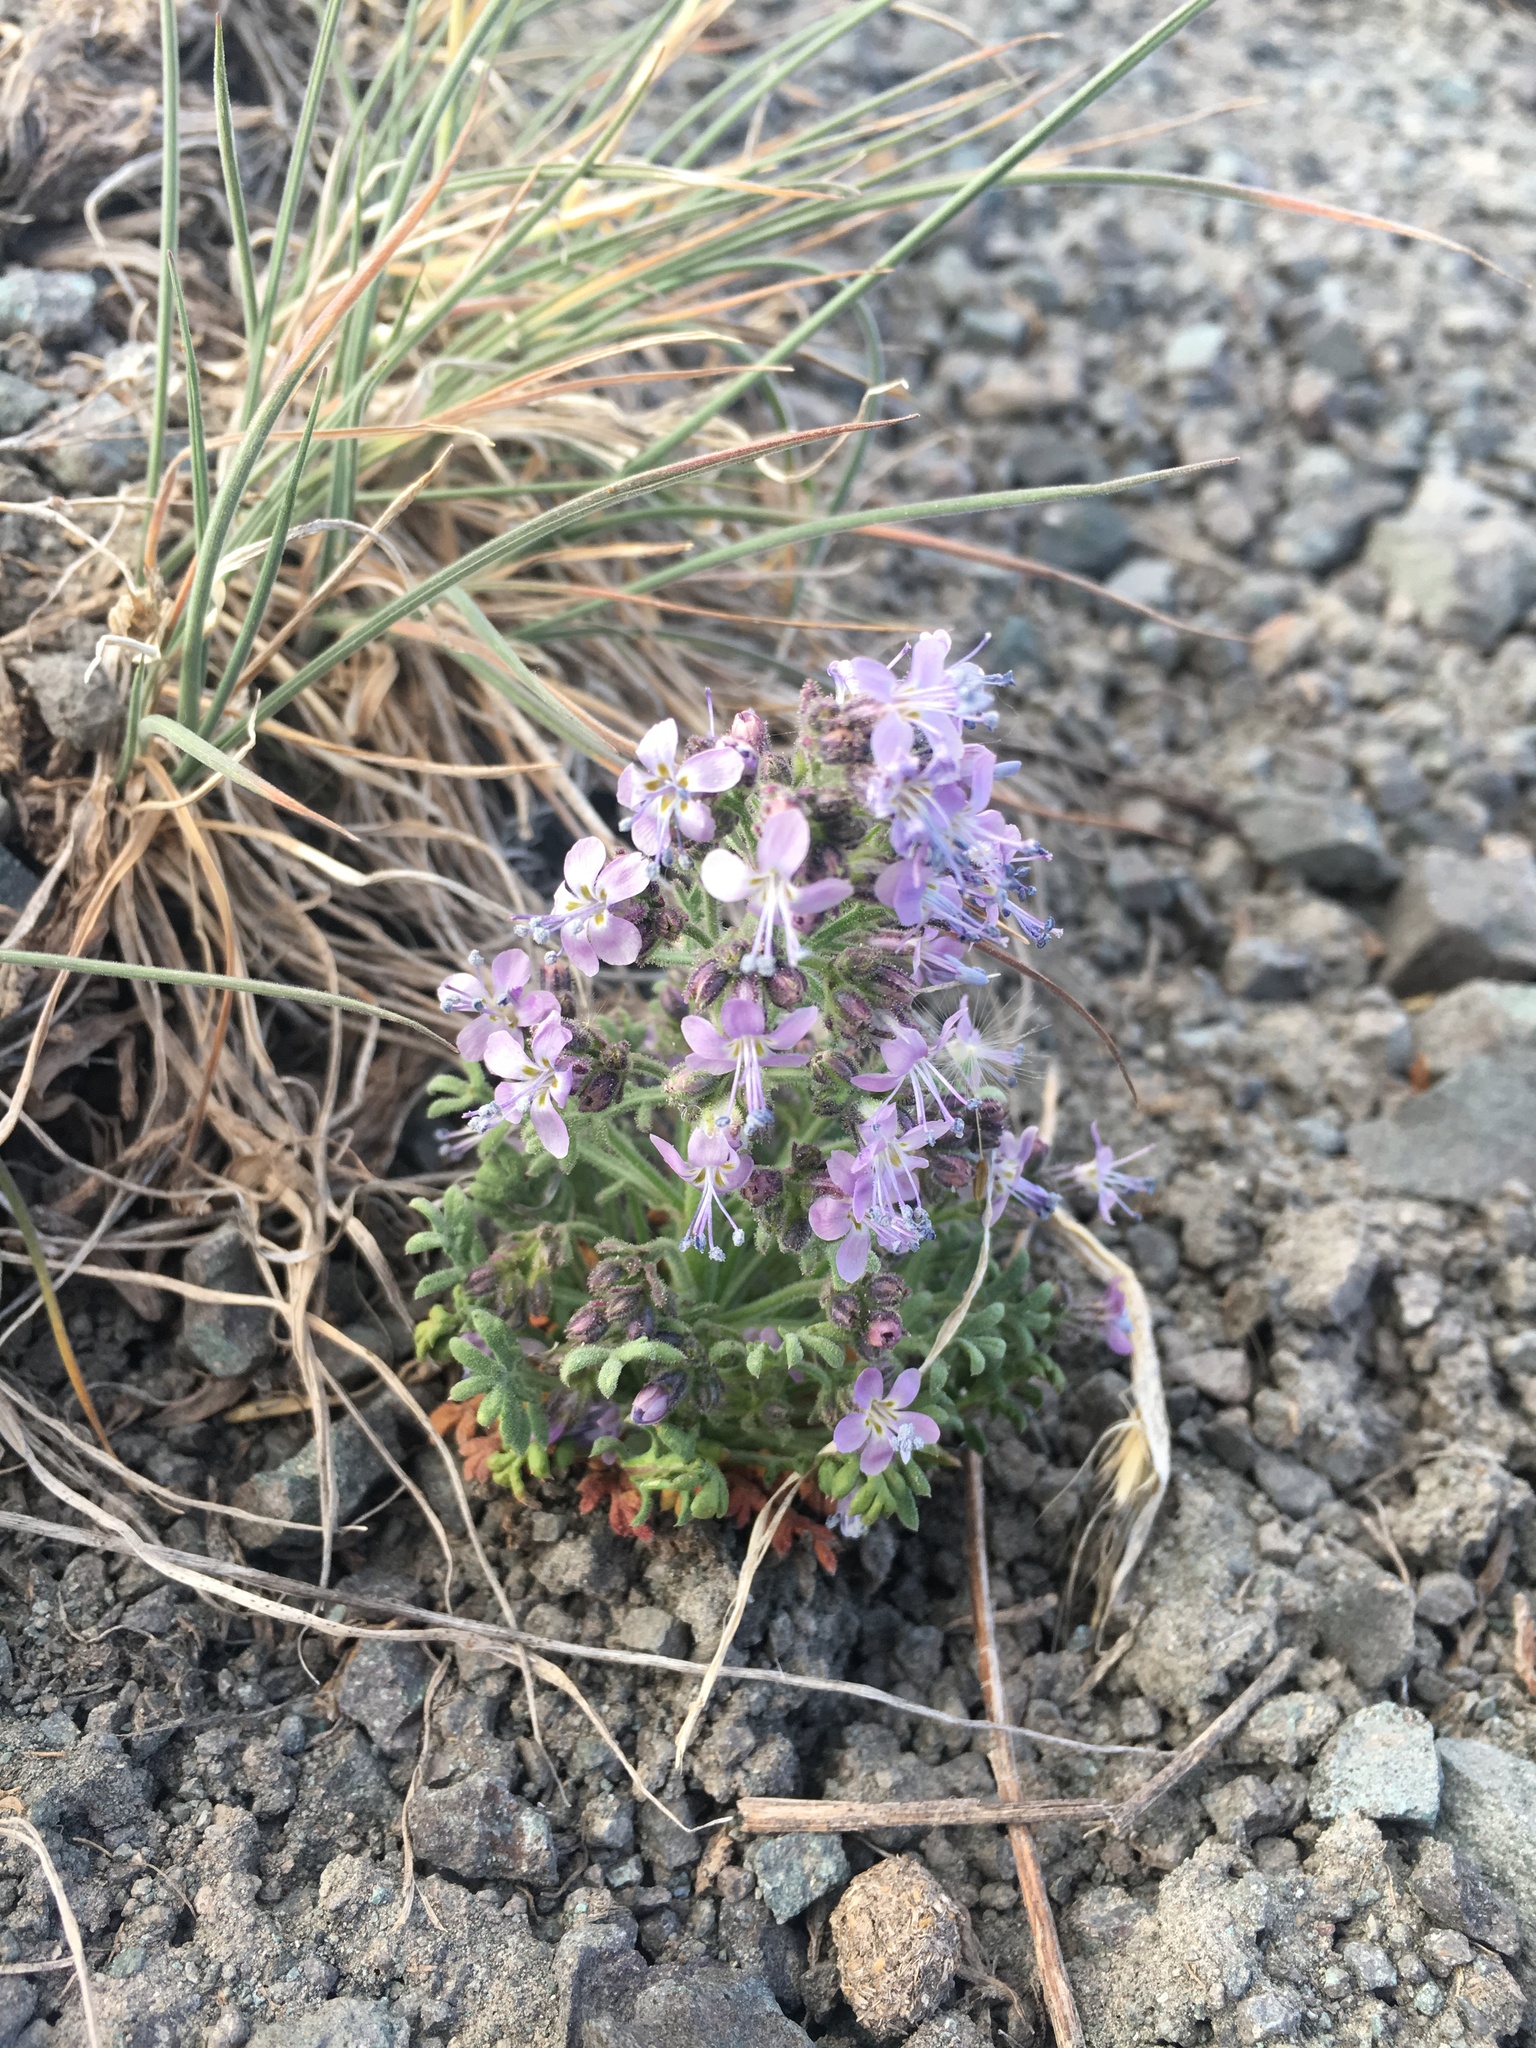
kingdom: Plantae
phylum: Tracheophyta
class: Magnoliopsida
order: Ericales
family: Polemoniaceae
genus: Aliciella
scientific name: Aliciella pinnatifida
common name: Sticky gilia
